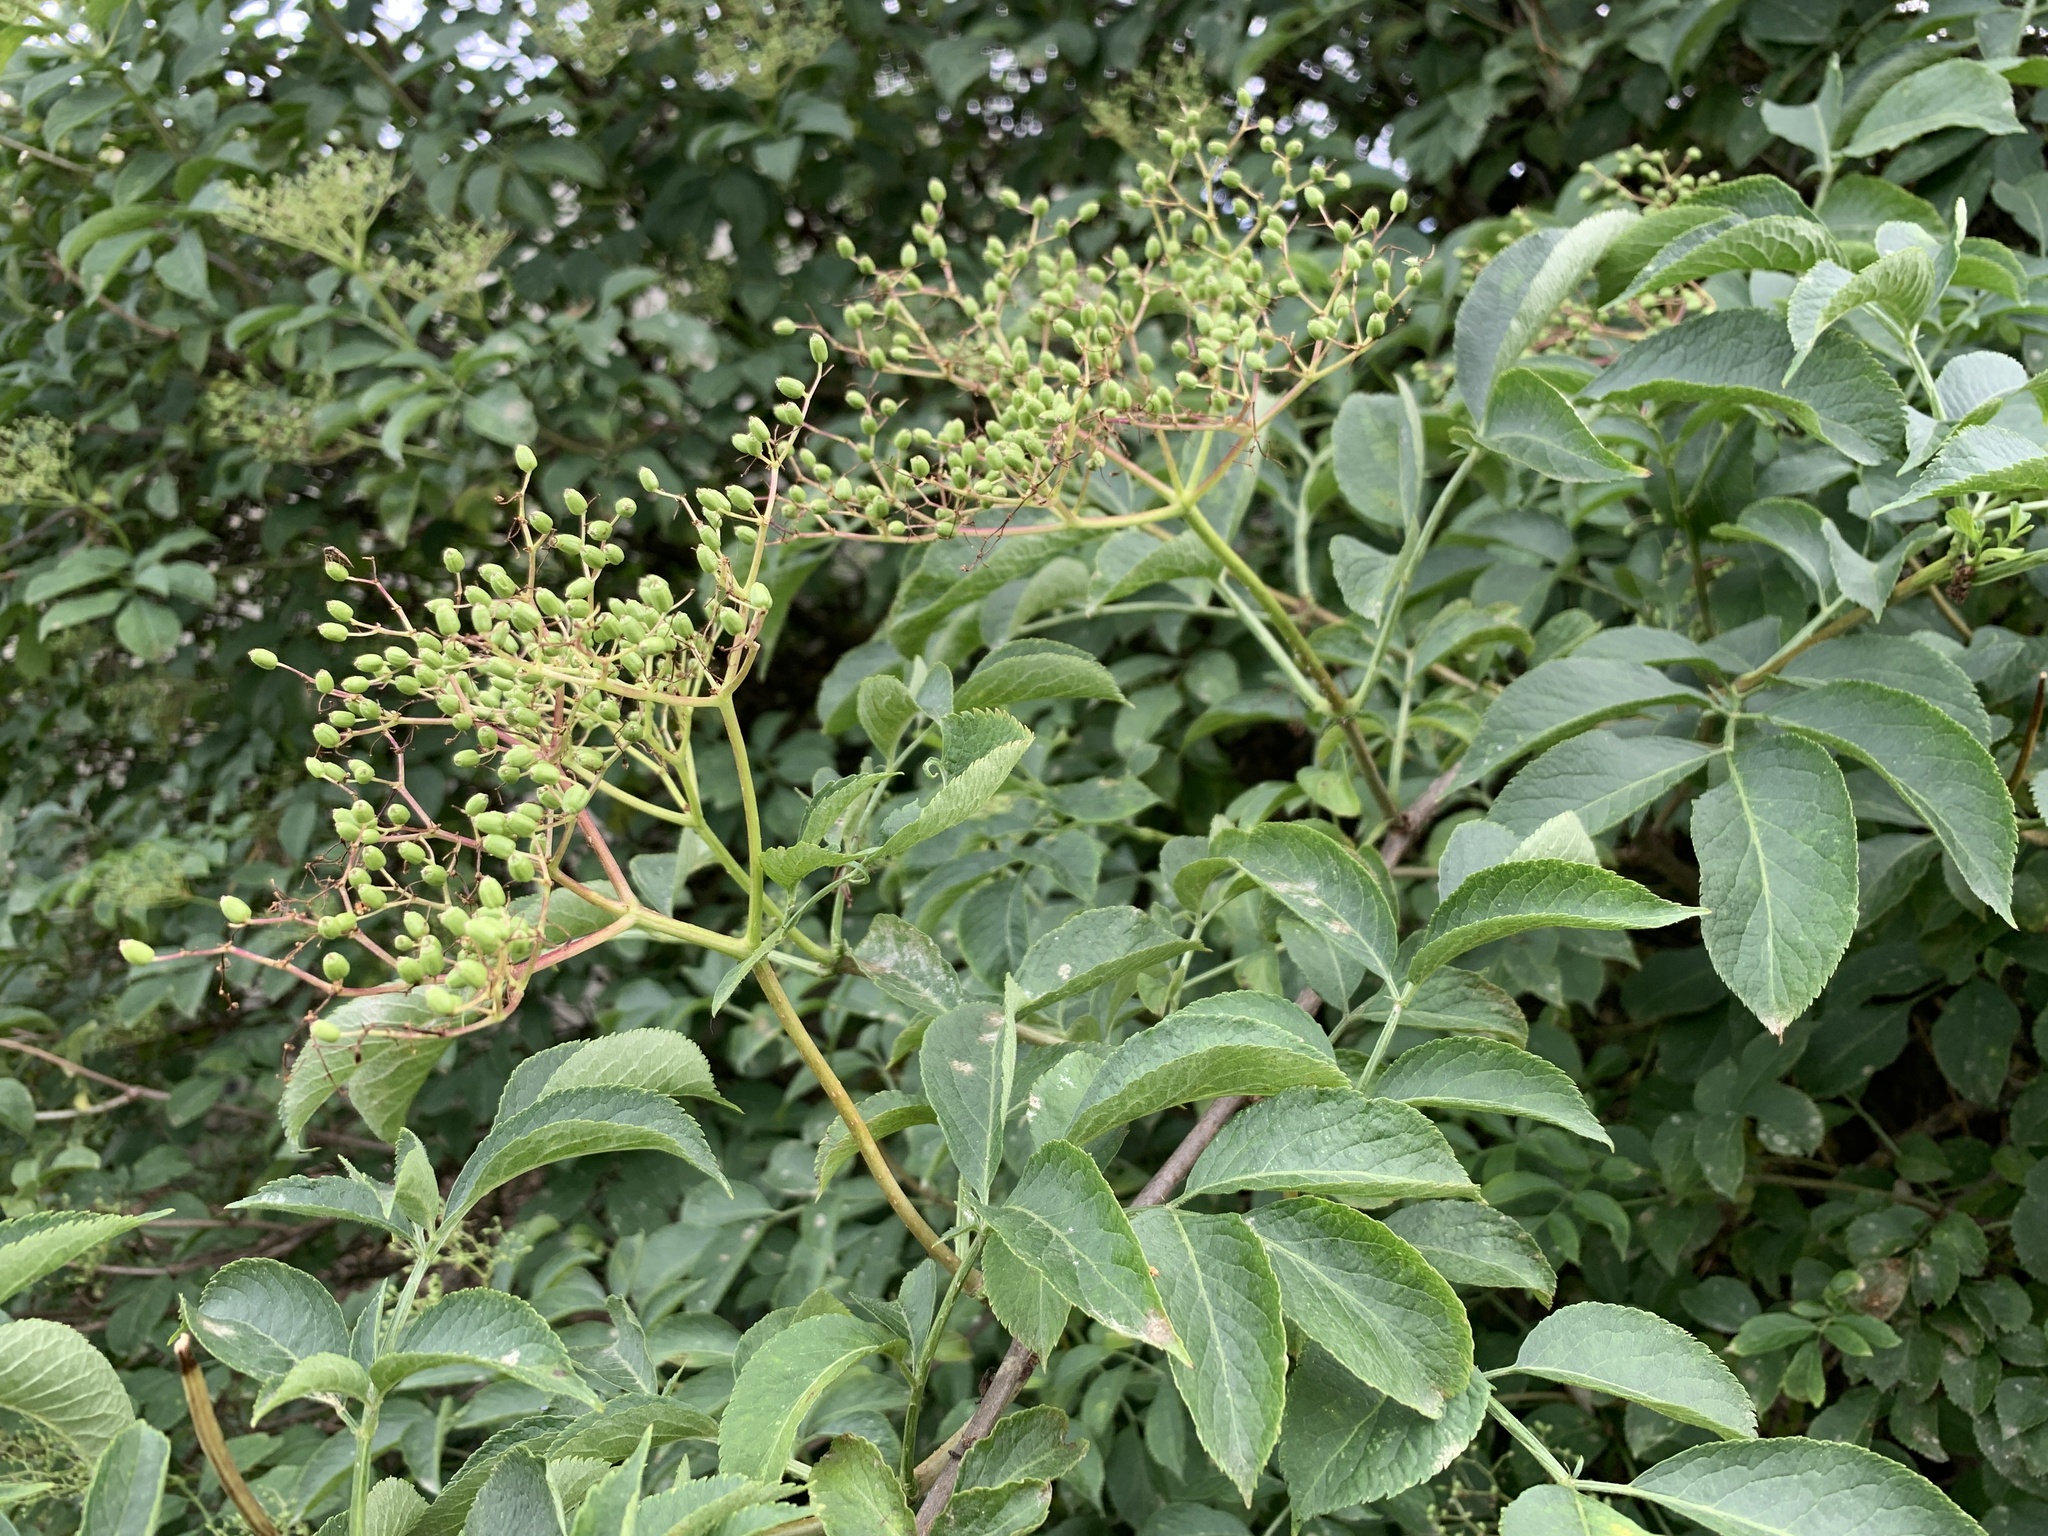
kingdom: Plantae
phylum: Tracheophyta
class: Magnoliopsida
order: Dipsacales
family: Viburnaceae
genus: Sambucus
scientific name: Sambucus nigra
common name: Elder
